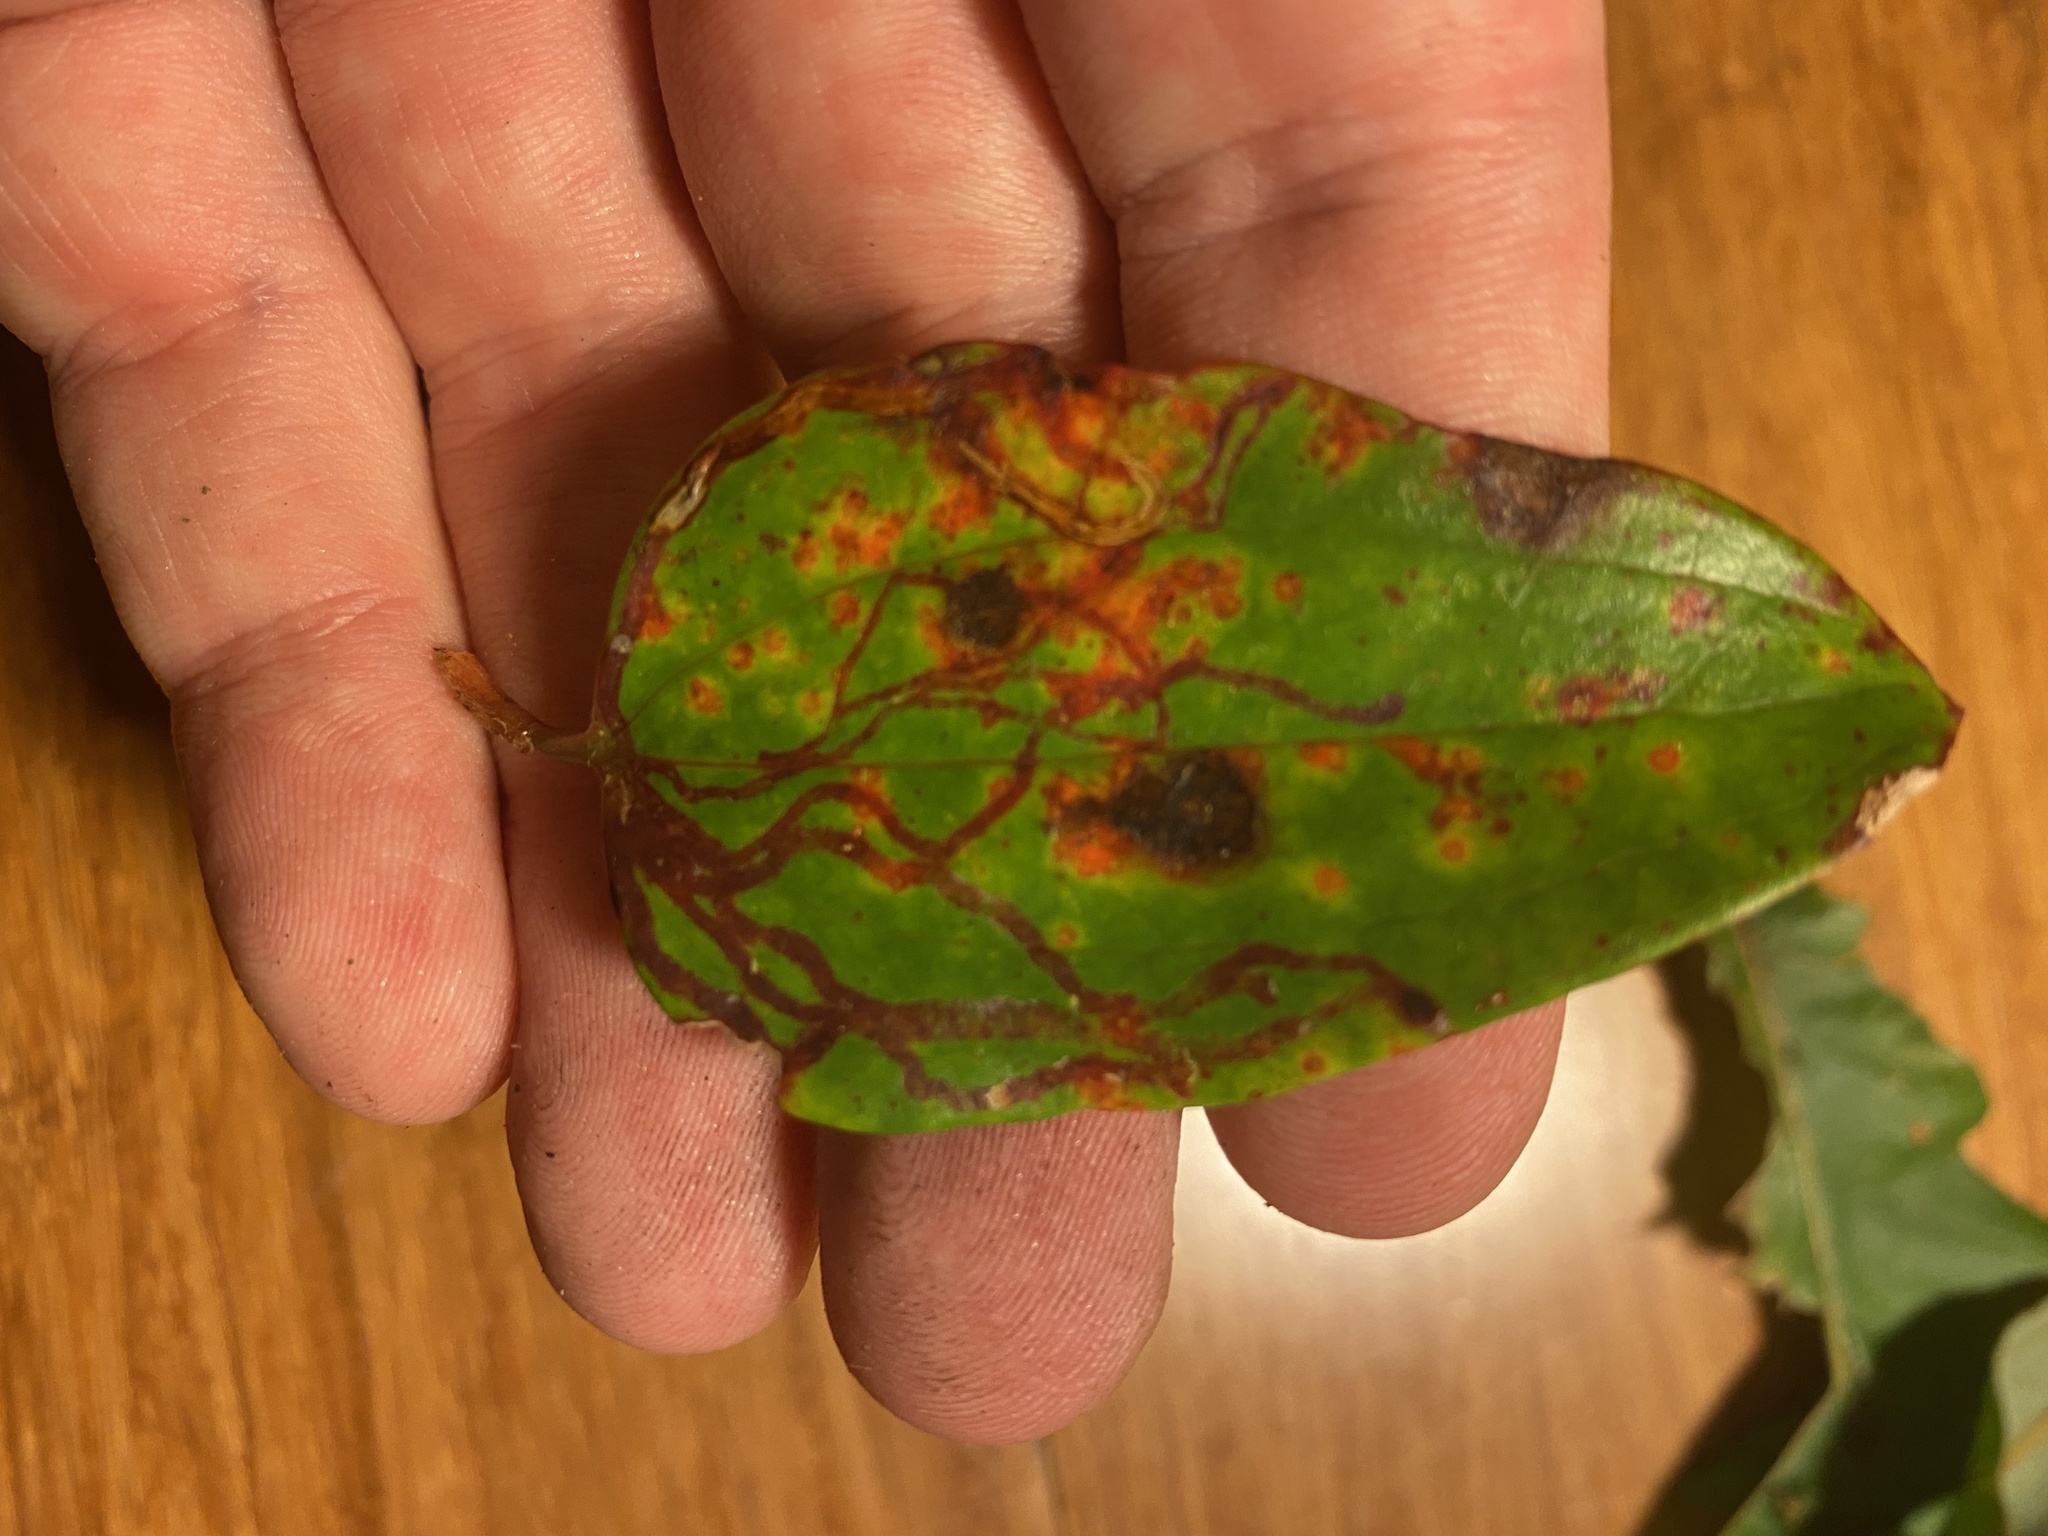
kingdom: Animalia
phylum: Arthropoda
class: Insecta
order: Lepidoptera
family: Gracillariidae
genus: Marmara
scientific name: Marmara smilacisella
